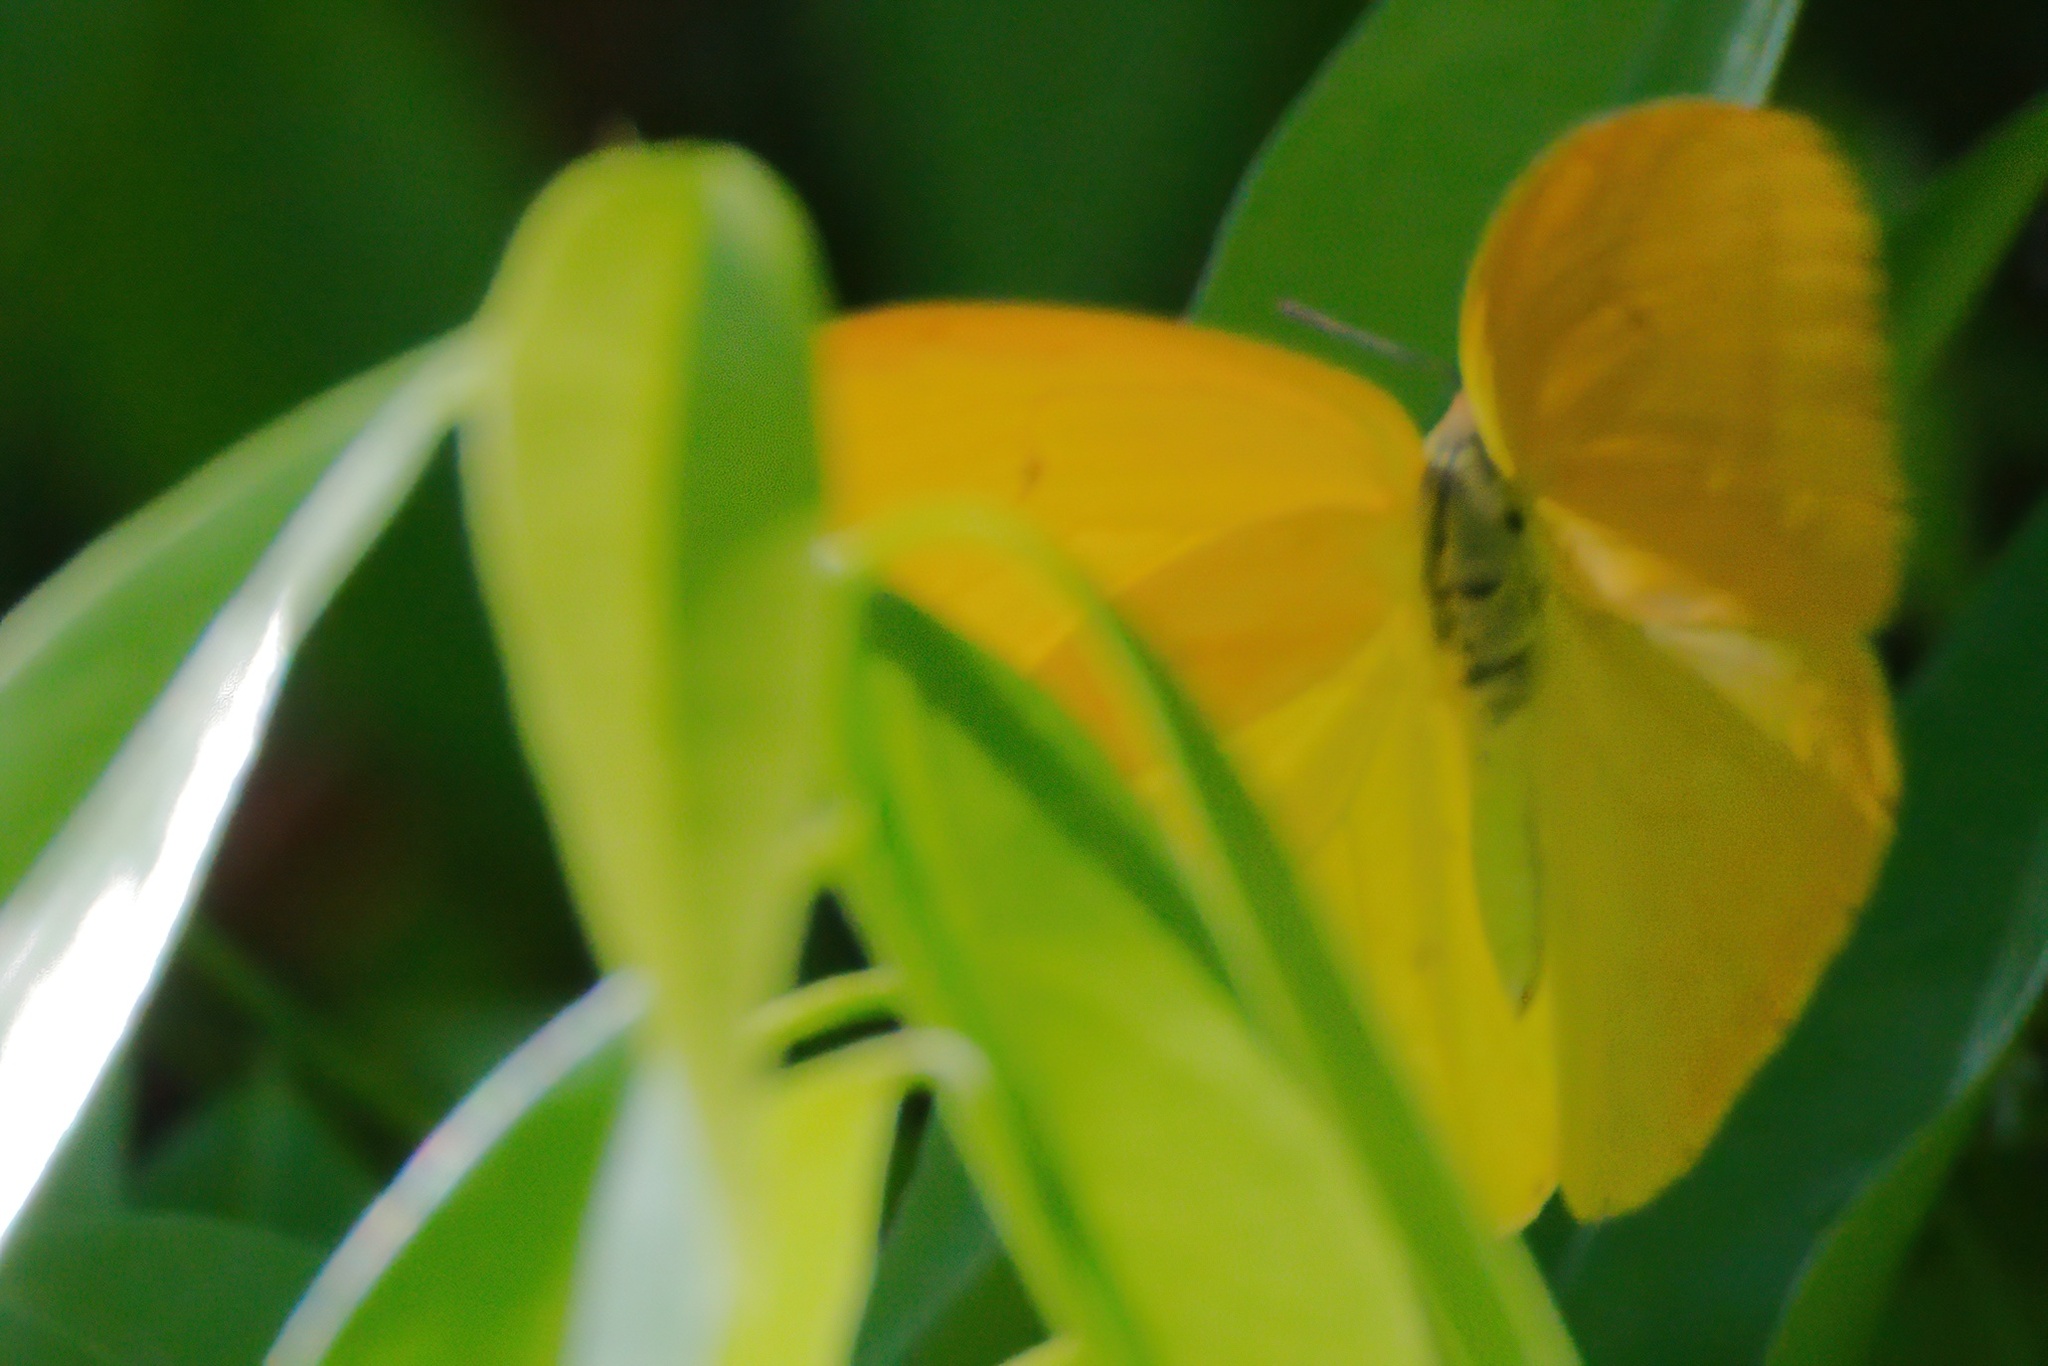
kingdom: Animalia
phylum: Arthropoda
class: Insecta
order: Lepidoptera
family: Pieridae
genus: Phoebis
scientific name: Phoebis agarithe
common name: Large orange sulphur
